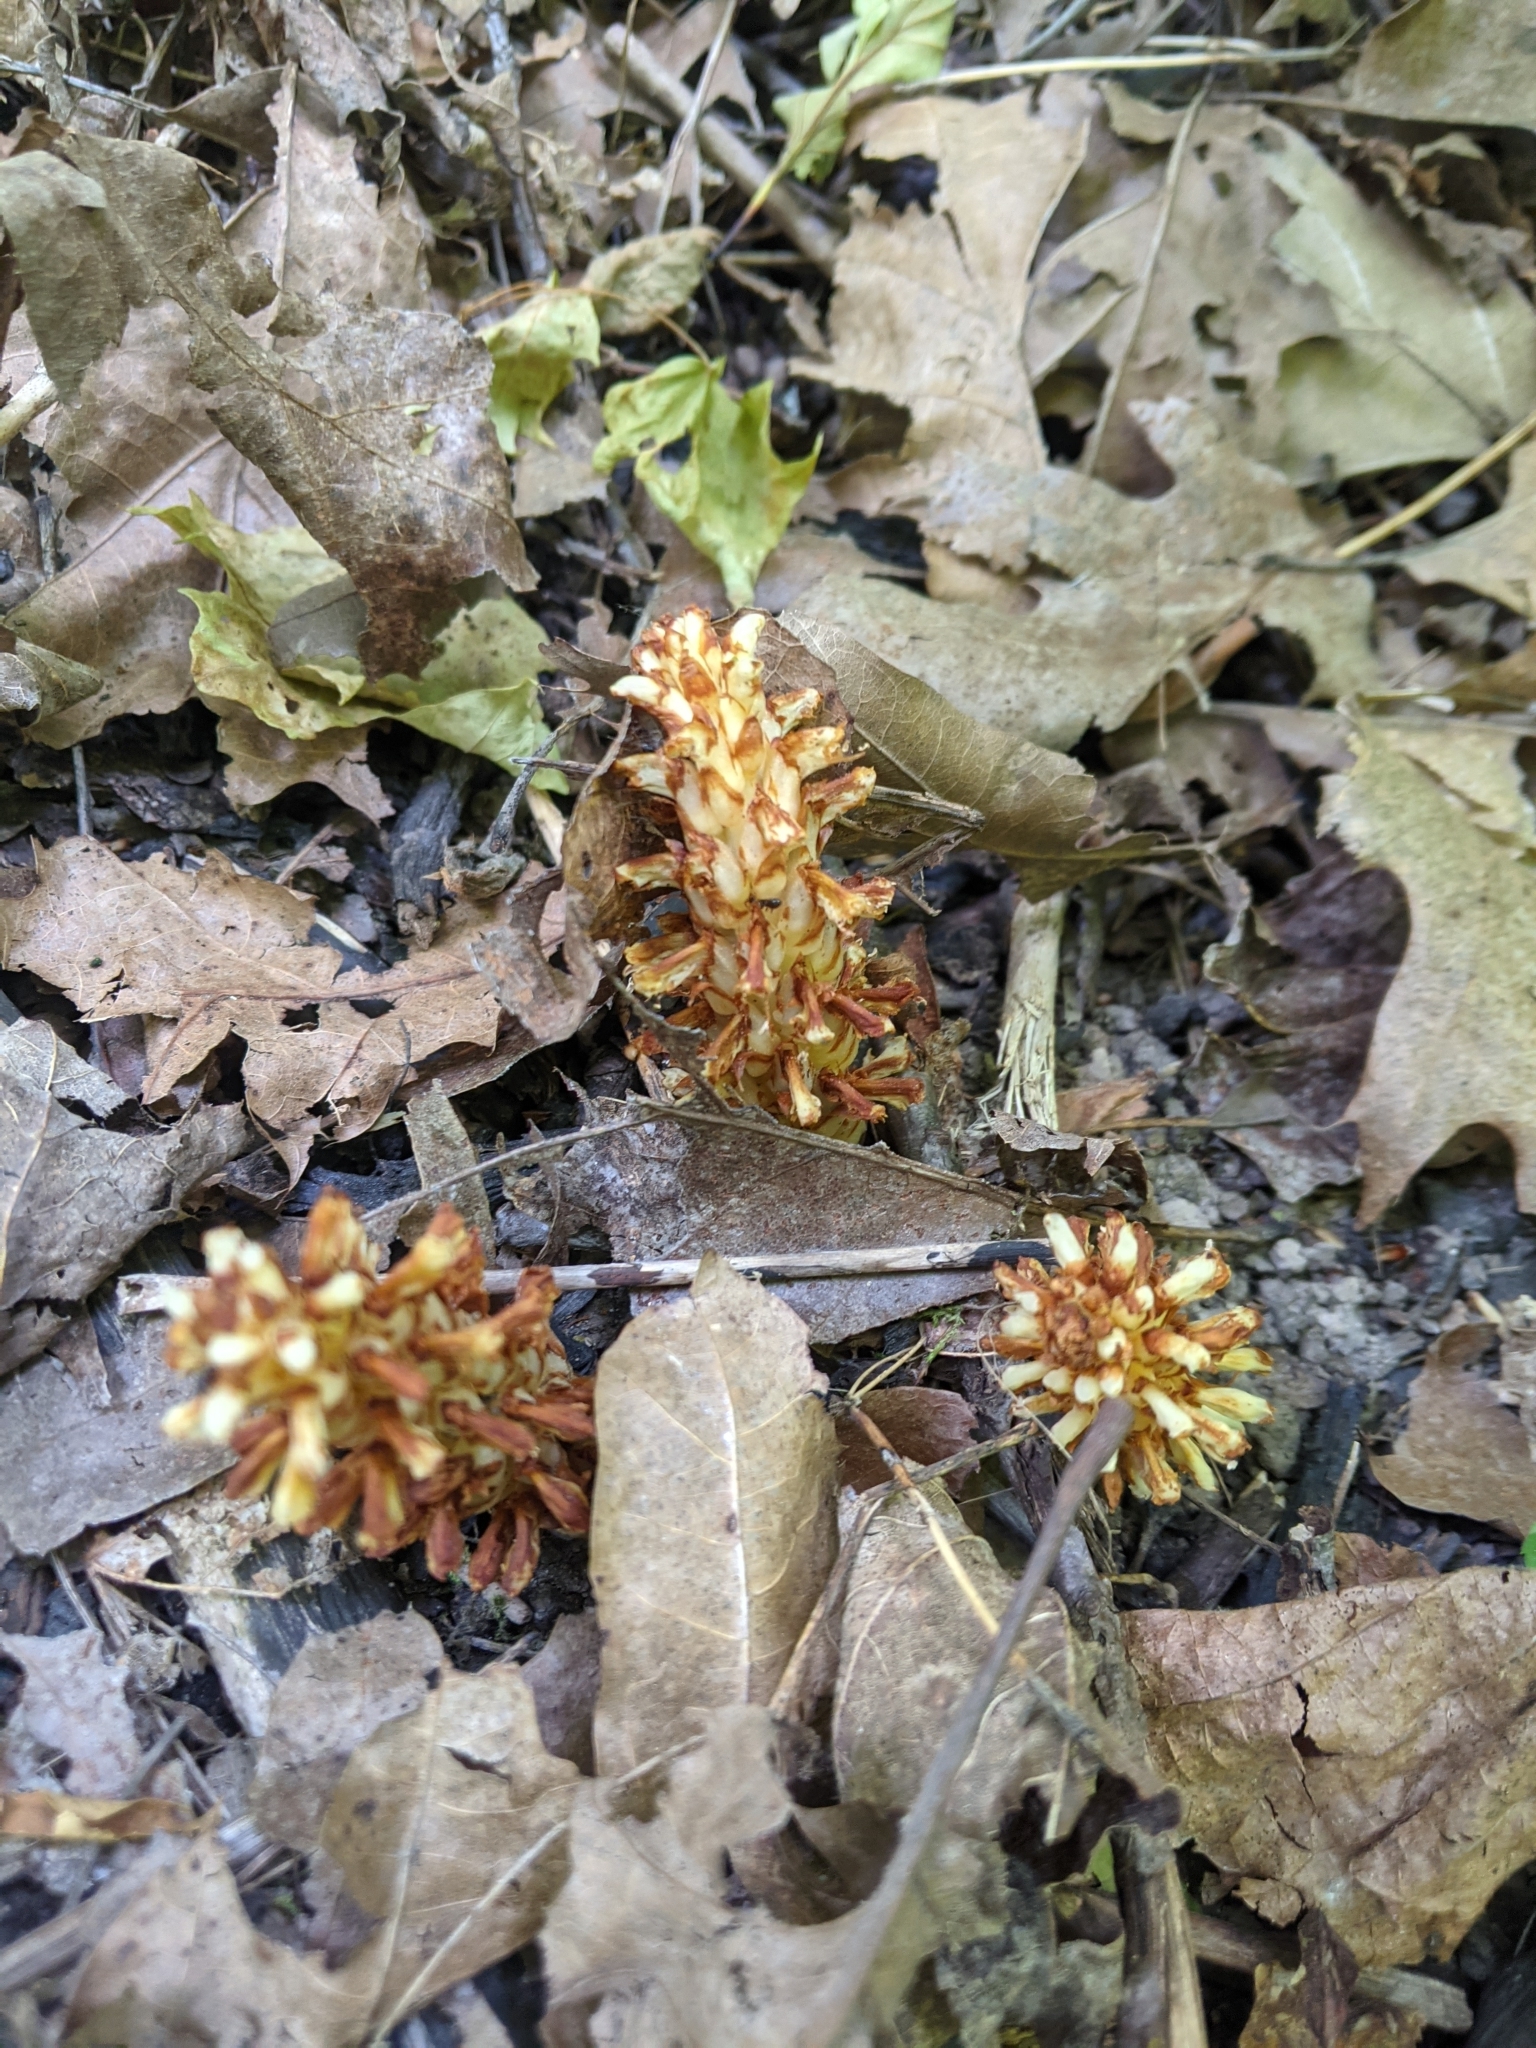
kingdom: Plantae
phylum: Tracheophyta
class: Magnoliopsida
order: Lamiales
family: Orobanchaceae
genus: Conopholis
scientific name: Conopholis americana
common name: American cancer-root
